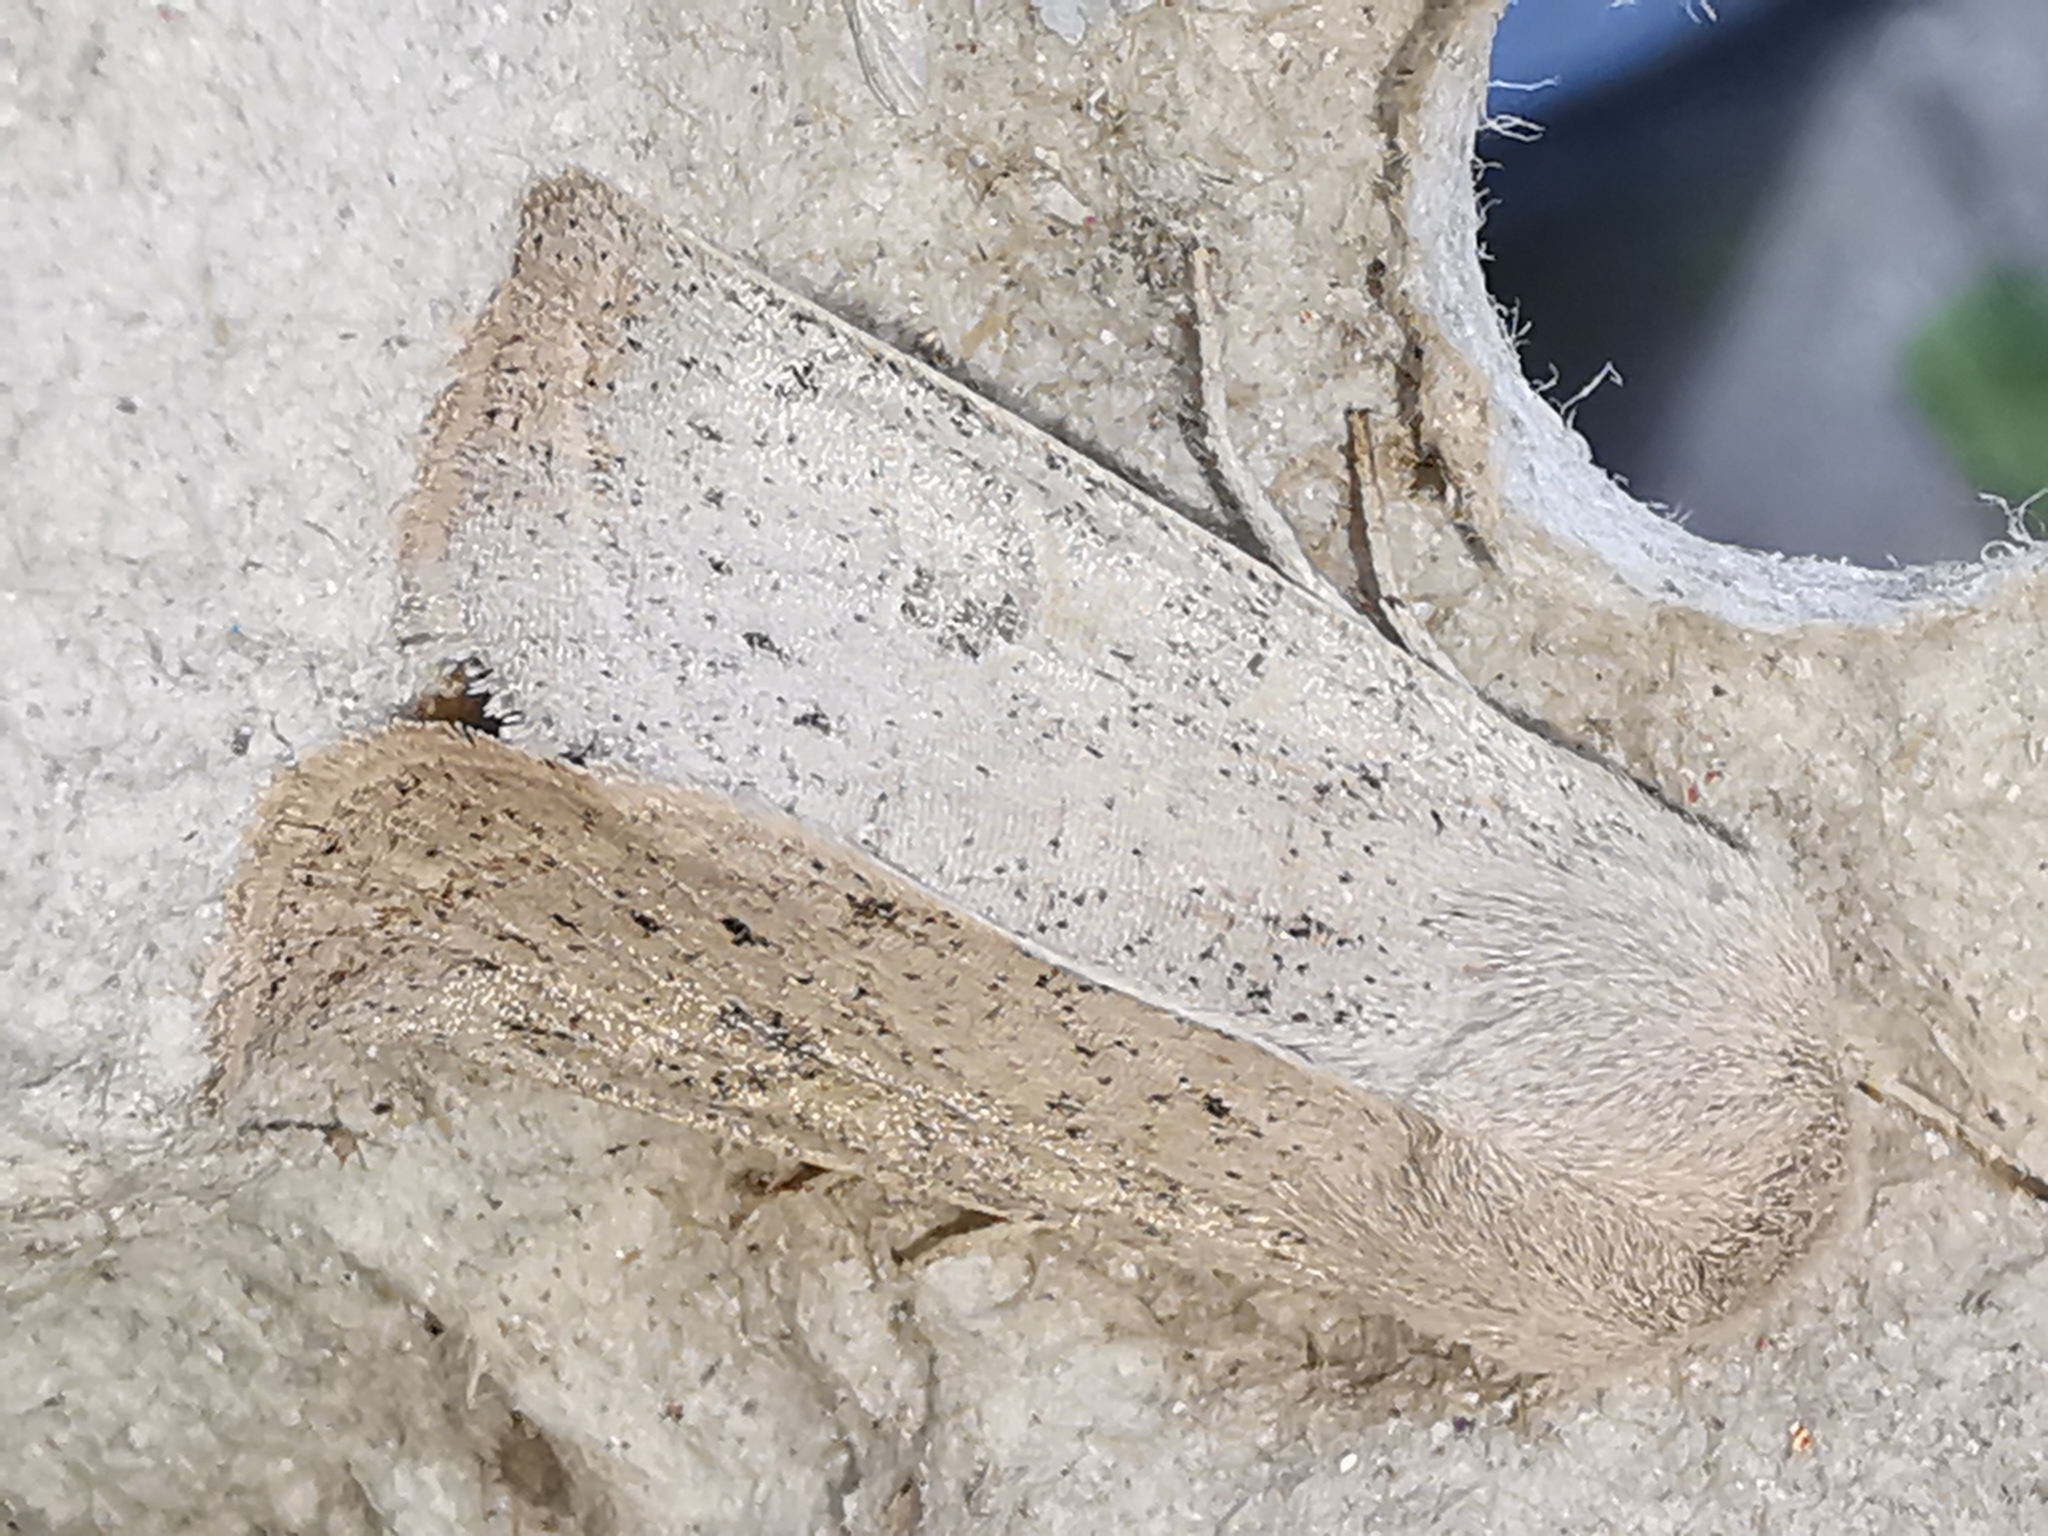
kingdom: Animalia
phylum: Arthropoda
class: Insecta
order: Lepidoptera
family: Noctuidae
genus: Orthosia
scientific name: Orthosia gracilis
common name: Powdered quaker
